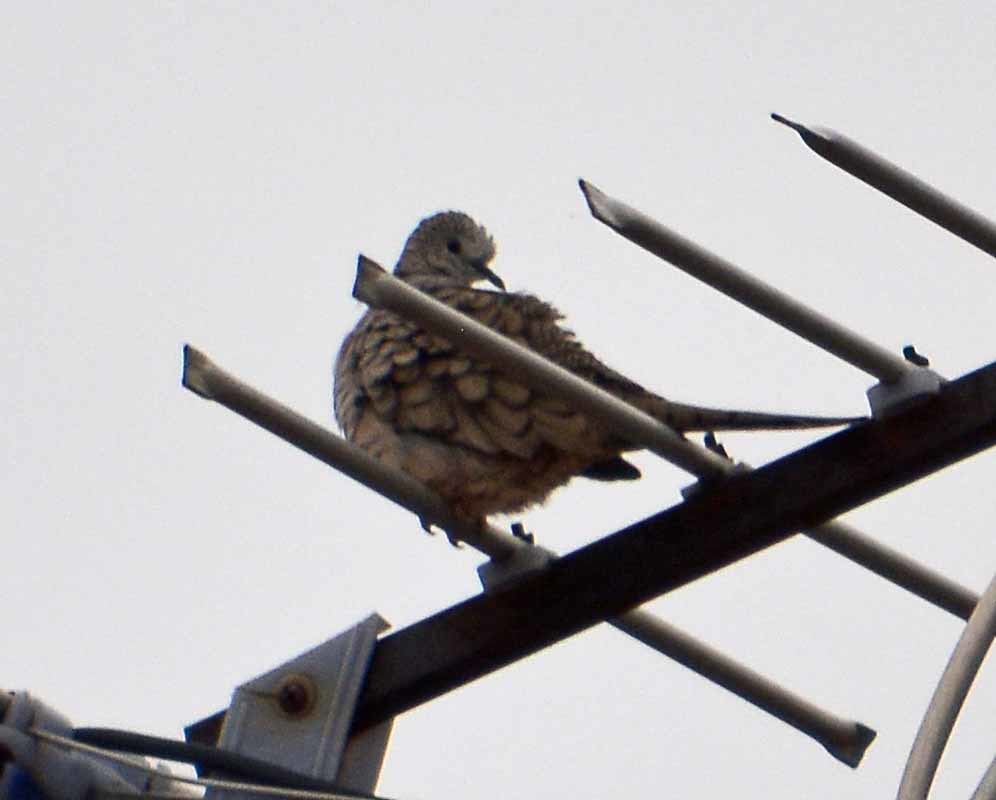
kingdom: Animalia
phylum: Chordata
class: Aves
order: Columbiformes
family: Columbidae
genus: Columbina
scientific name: Columbina inca
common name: Inca dove
